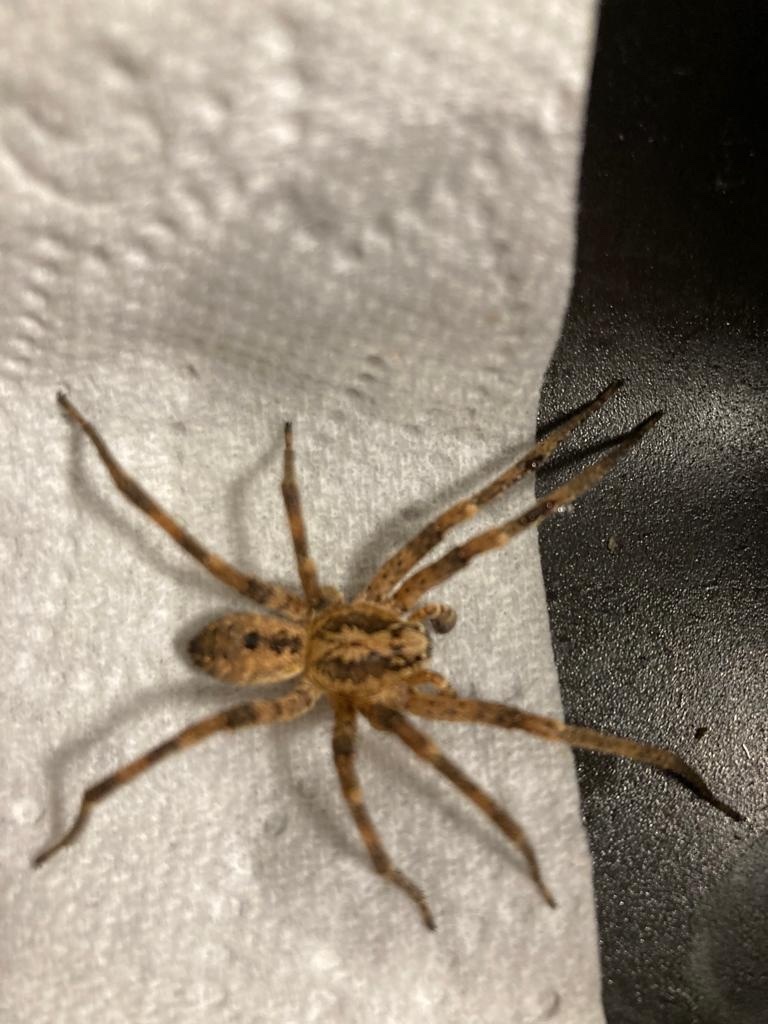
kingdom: Animalia
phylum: Arthropoda
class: Arachnida
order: Araneae
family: Zoropsidae
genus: Zoropsis
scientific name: Zoropsis spinimana
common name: Zoropsid spider
